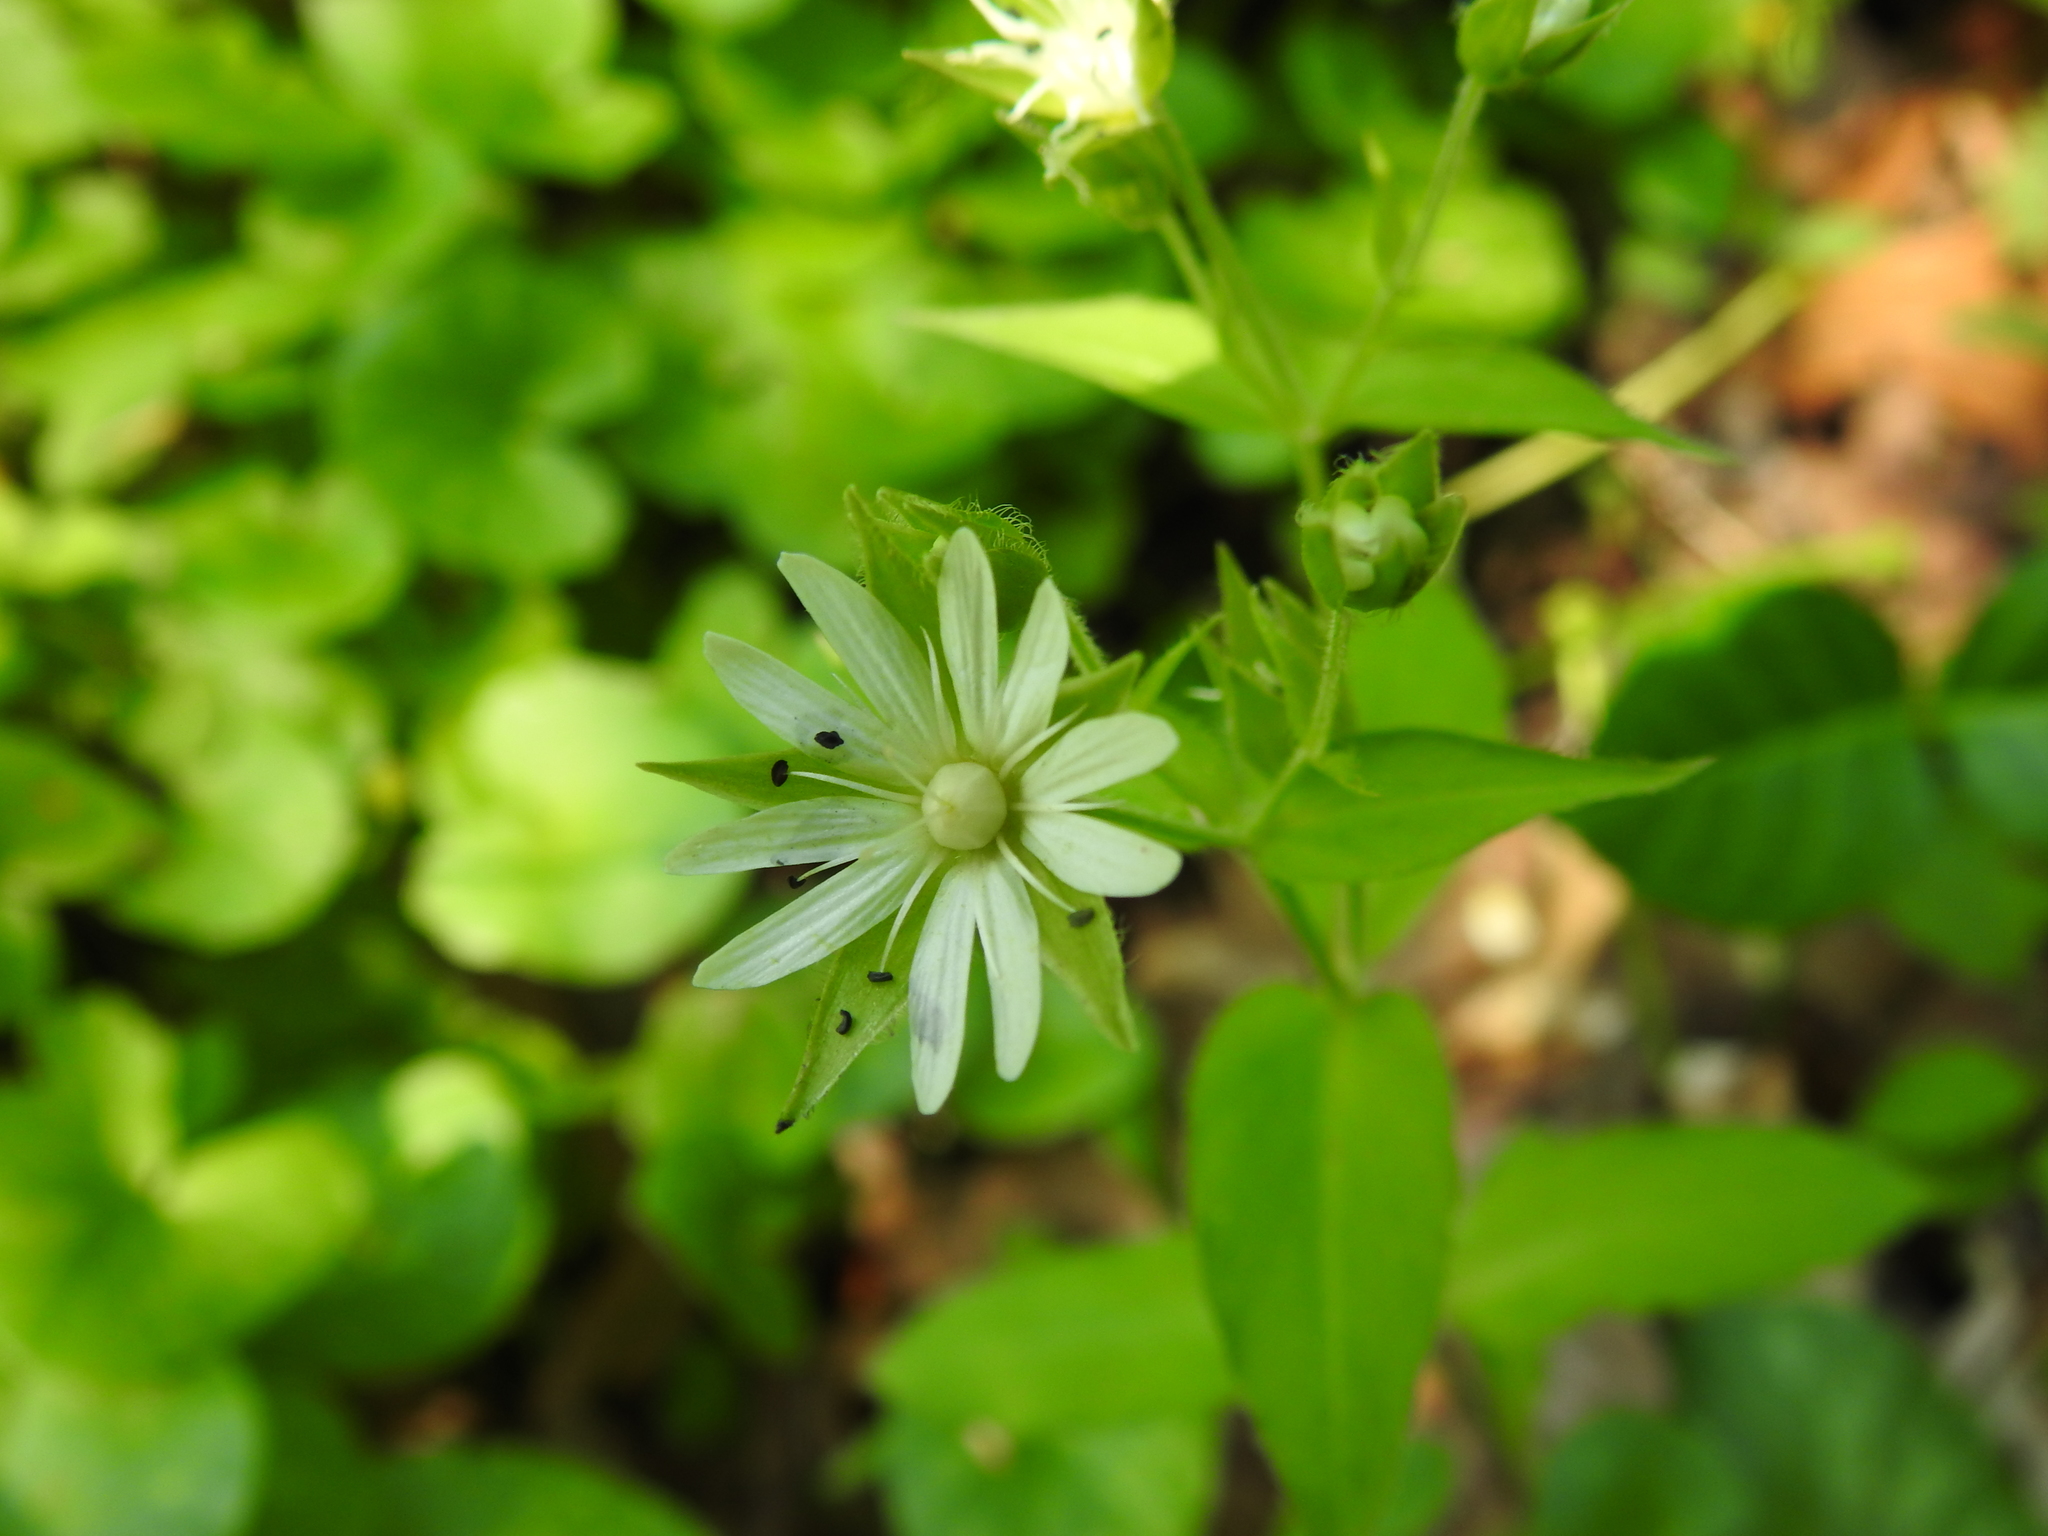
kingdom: Plantae
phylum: Tracheophyta
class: Magnoliopsida
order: Caryophyllales
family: Caryophyllaceae
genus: Stellaria
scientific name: Stellaria corei
